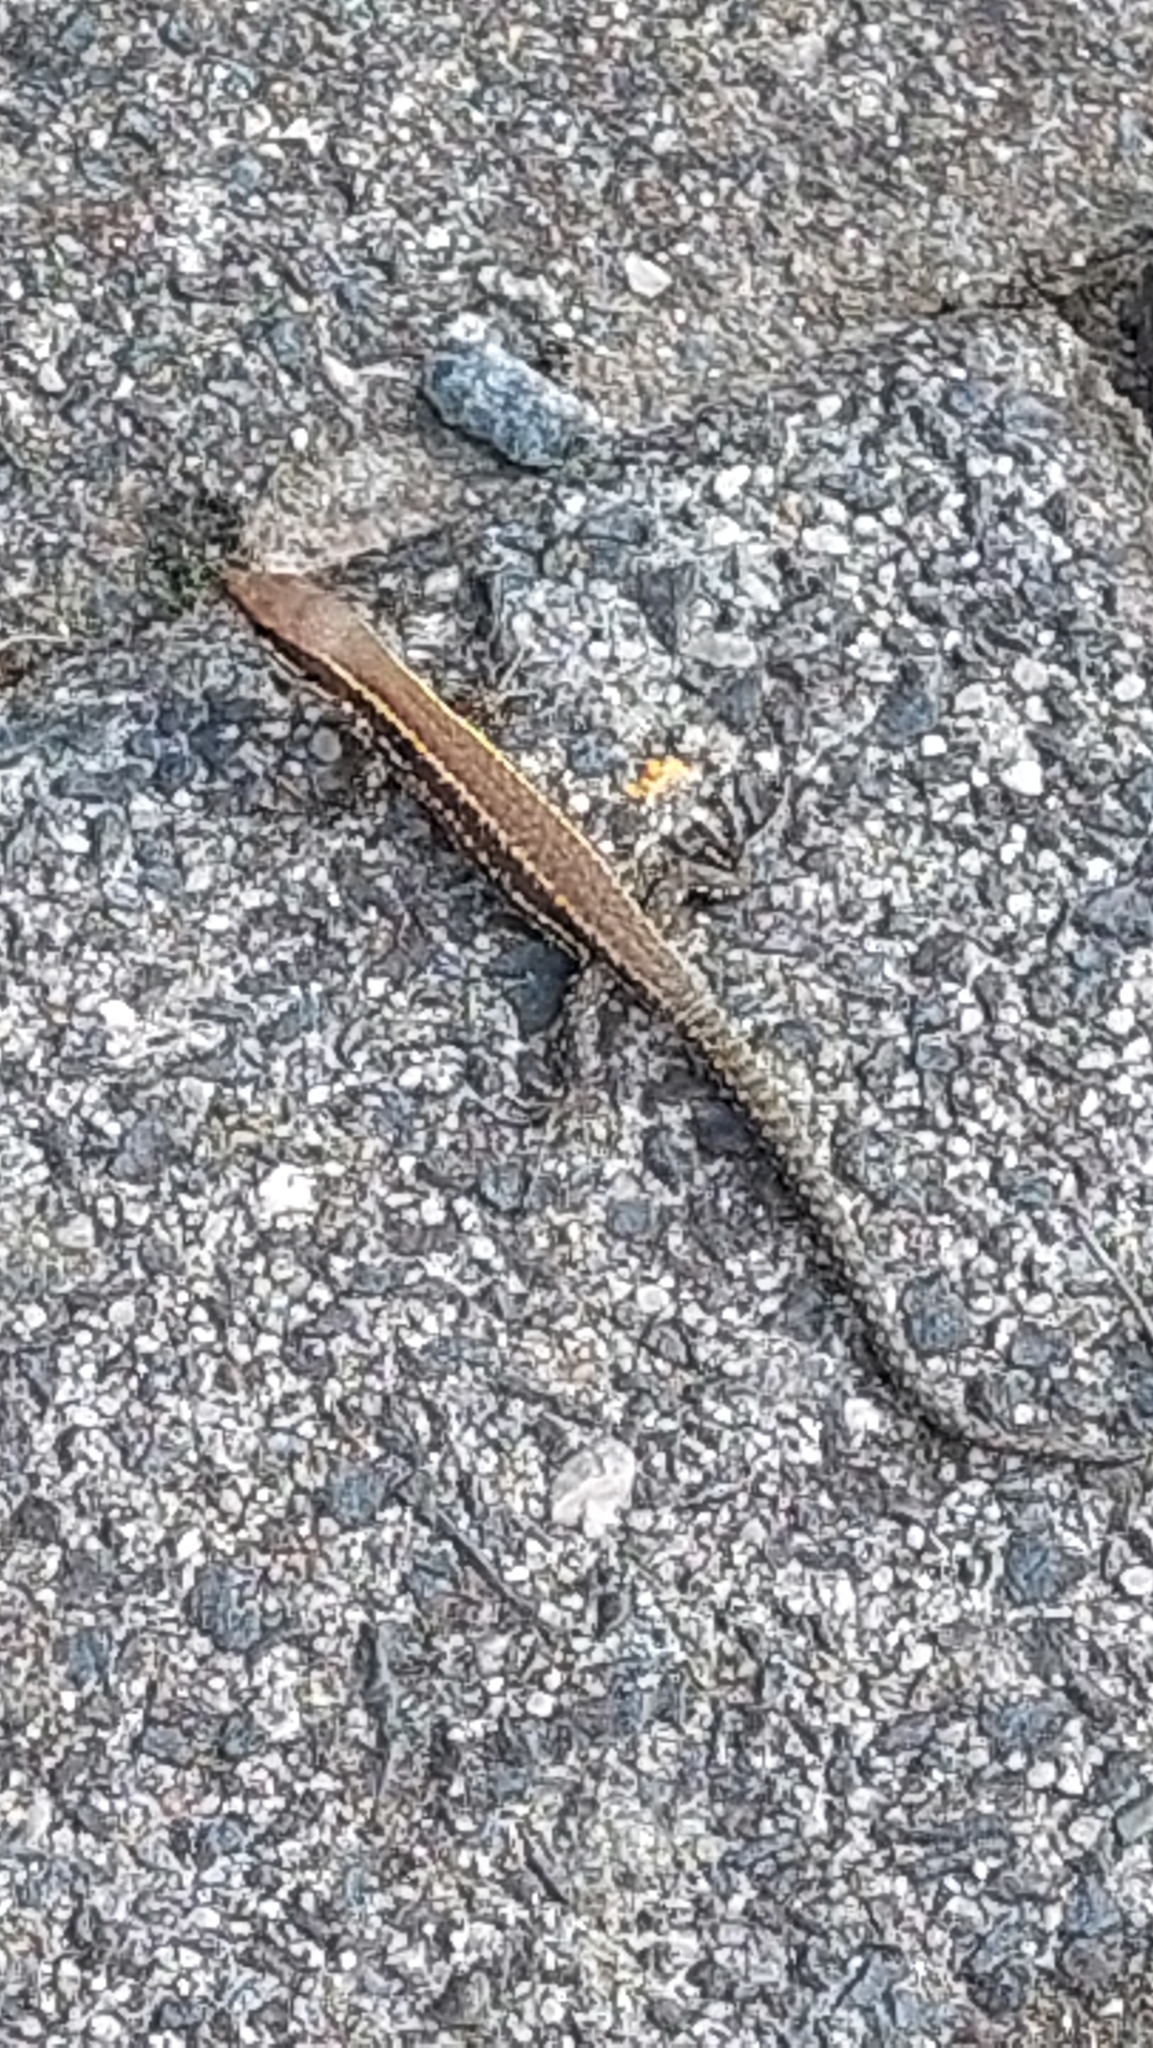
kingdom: Animalia
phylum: Chordata
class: Squamata
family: Lacertidae
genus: Podarcis
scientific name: Podarcis muralis
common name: Common wall lizard
